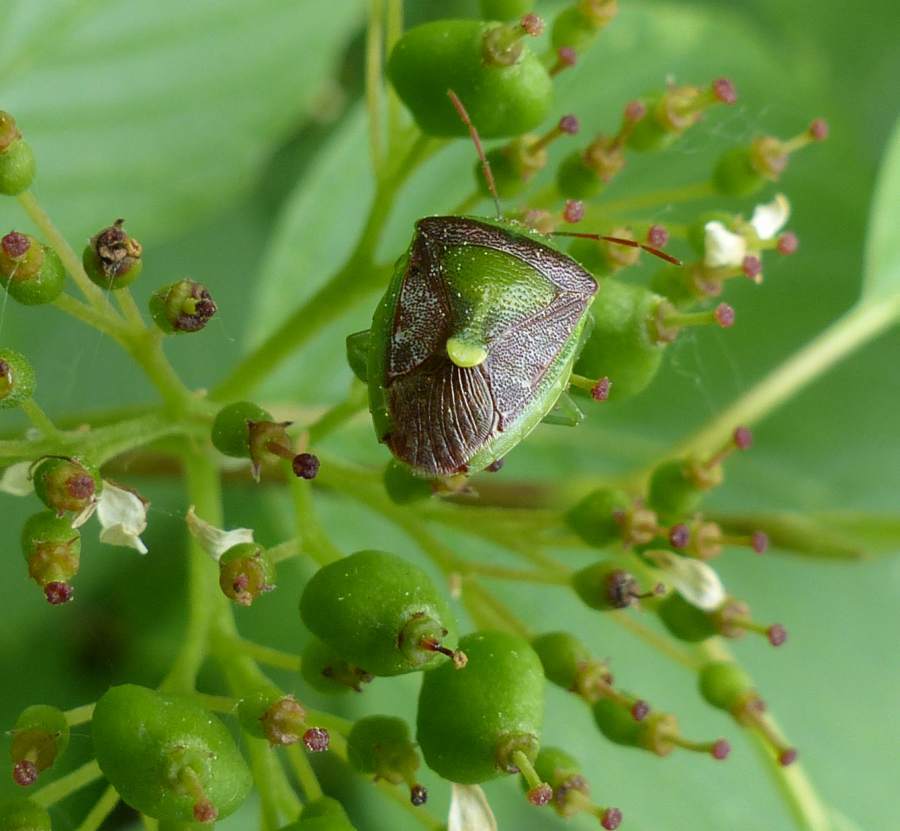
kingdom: Animalia
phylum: Arthropoda
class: Insecta
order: Hemiptera
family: Pentatomidae
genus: Banasa
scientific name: Banasa dimidiata
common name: Green burgundy stink bug
